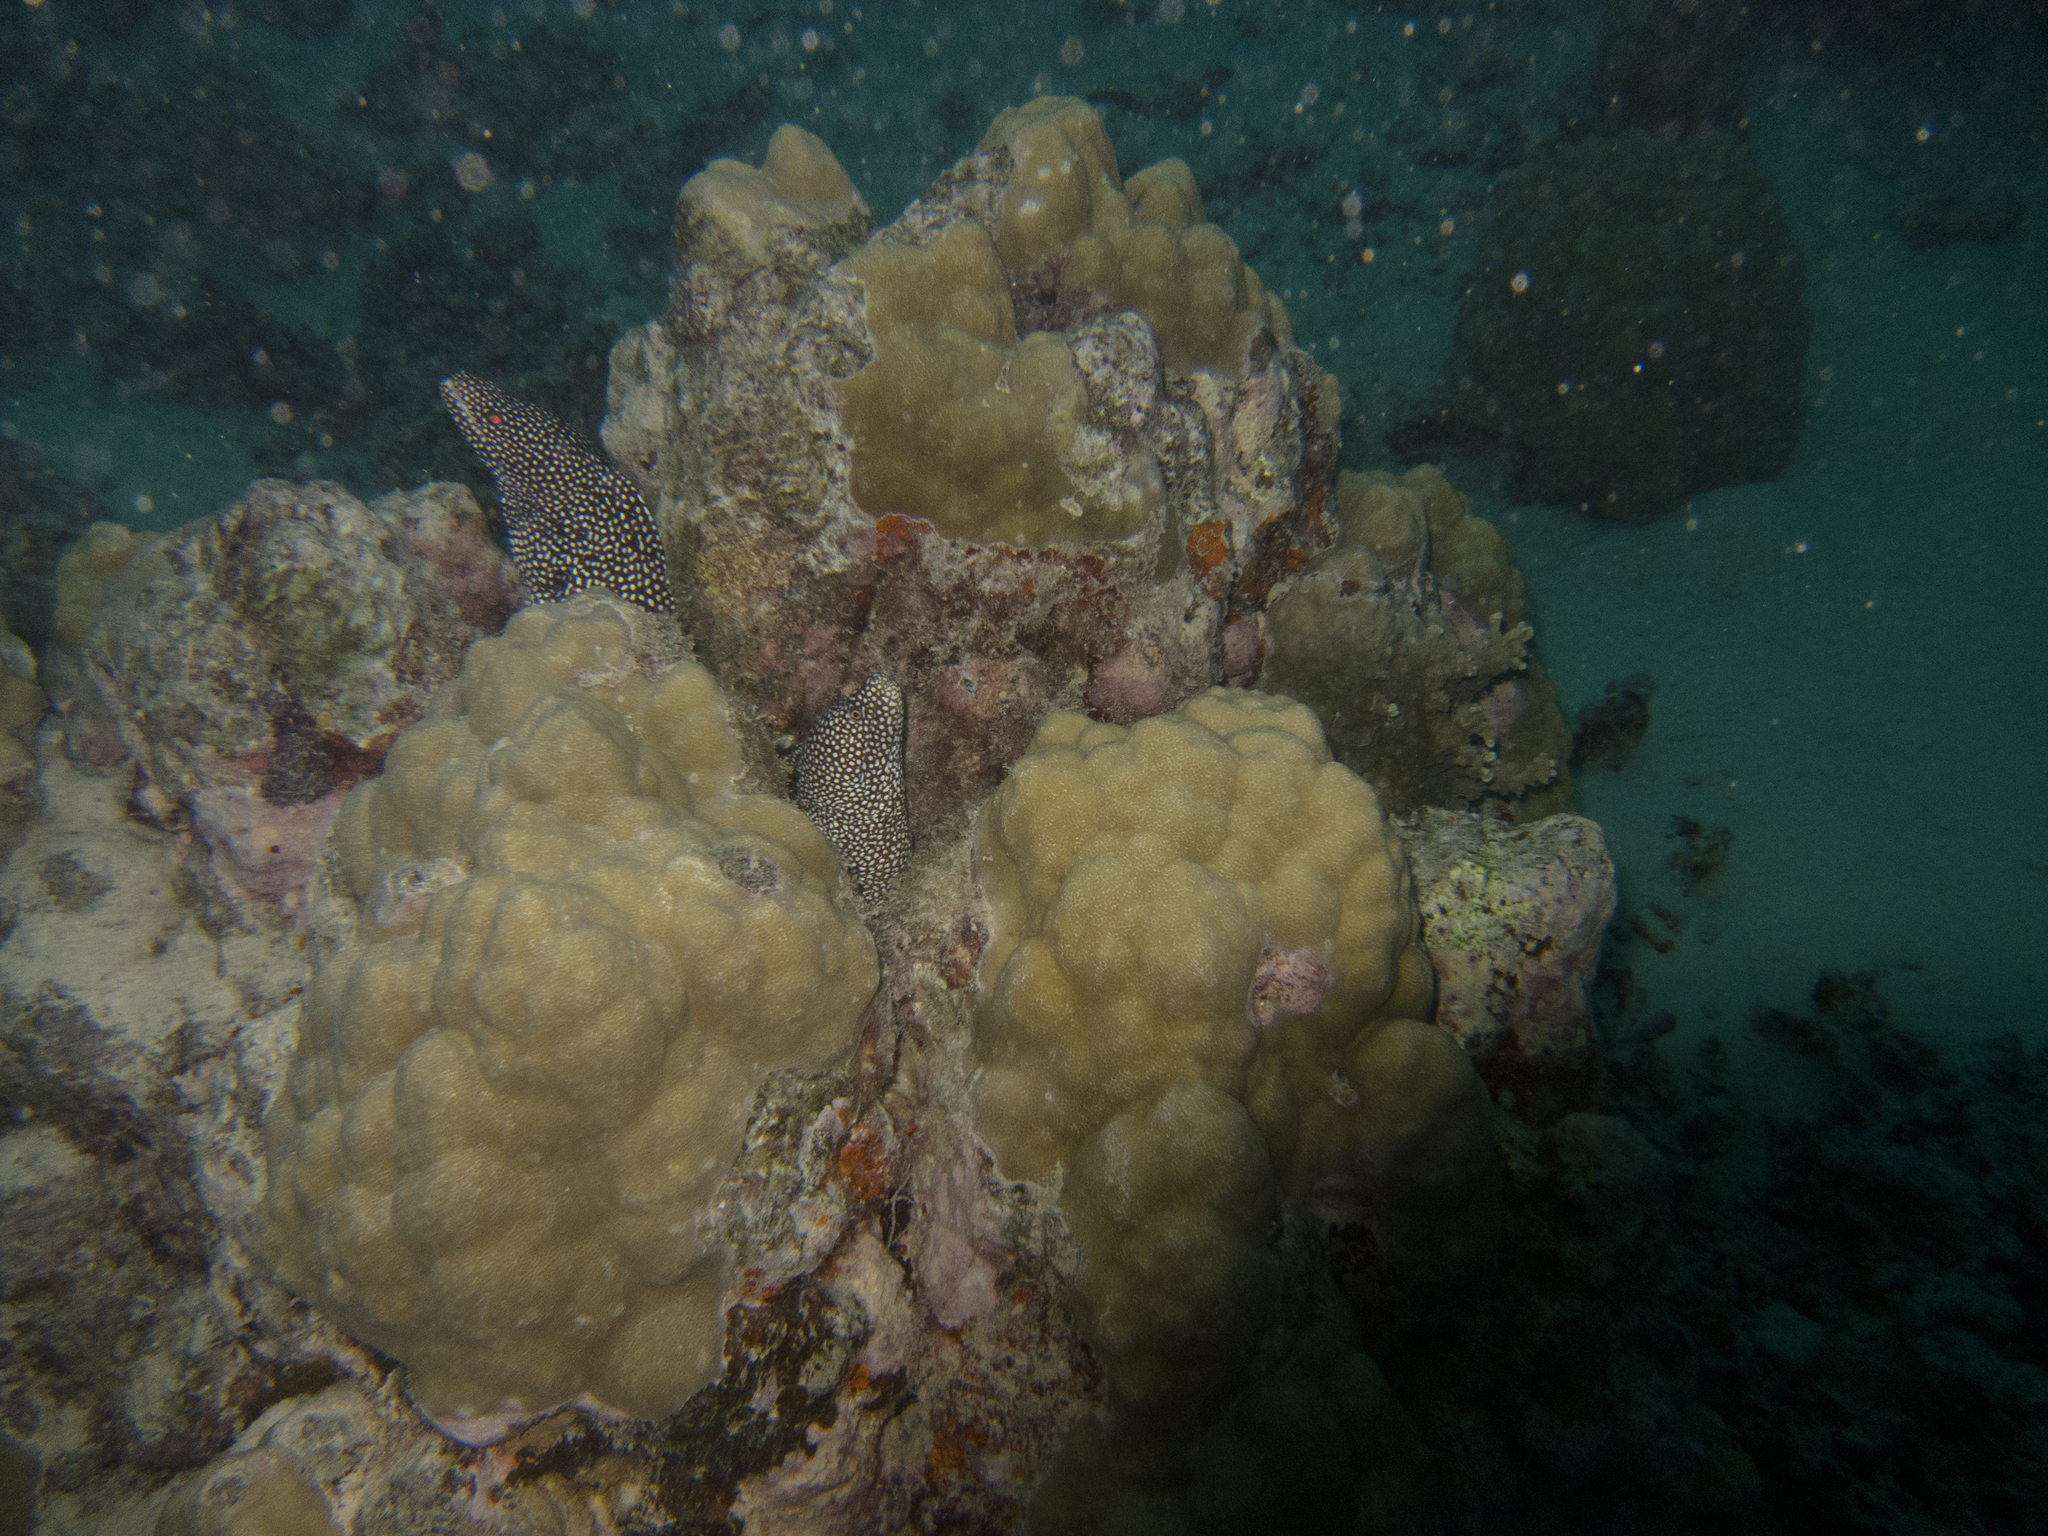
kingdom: Animalia
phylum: Chordata
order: Anguilliformes
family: Muraenidae
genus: Gymnothorax
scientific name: Gymnothorax meleagris
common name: Guineafowl moray
